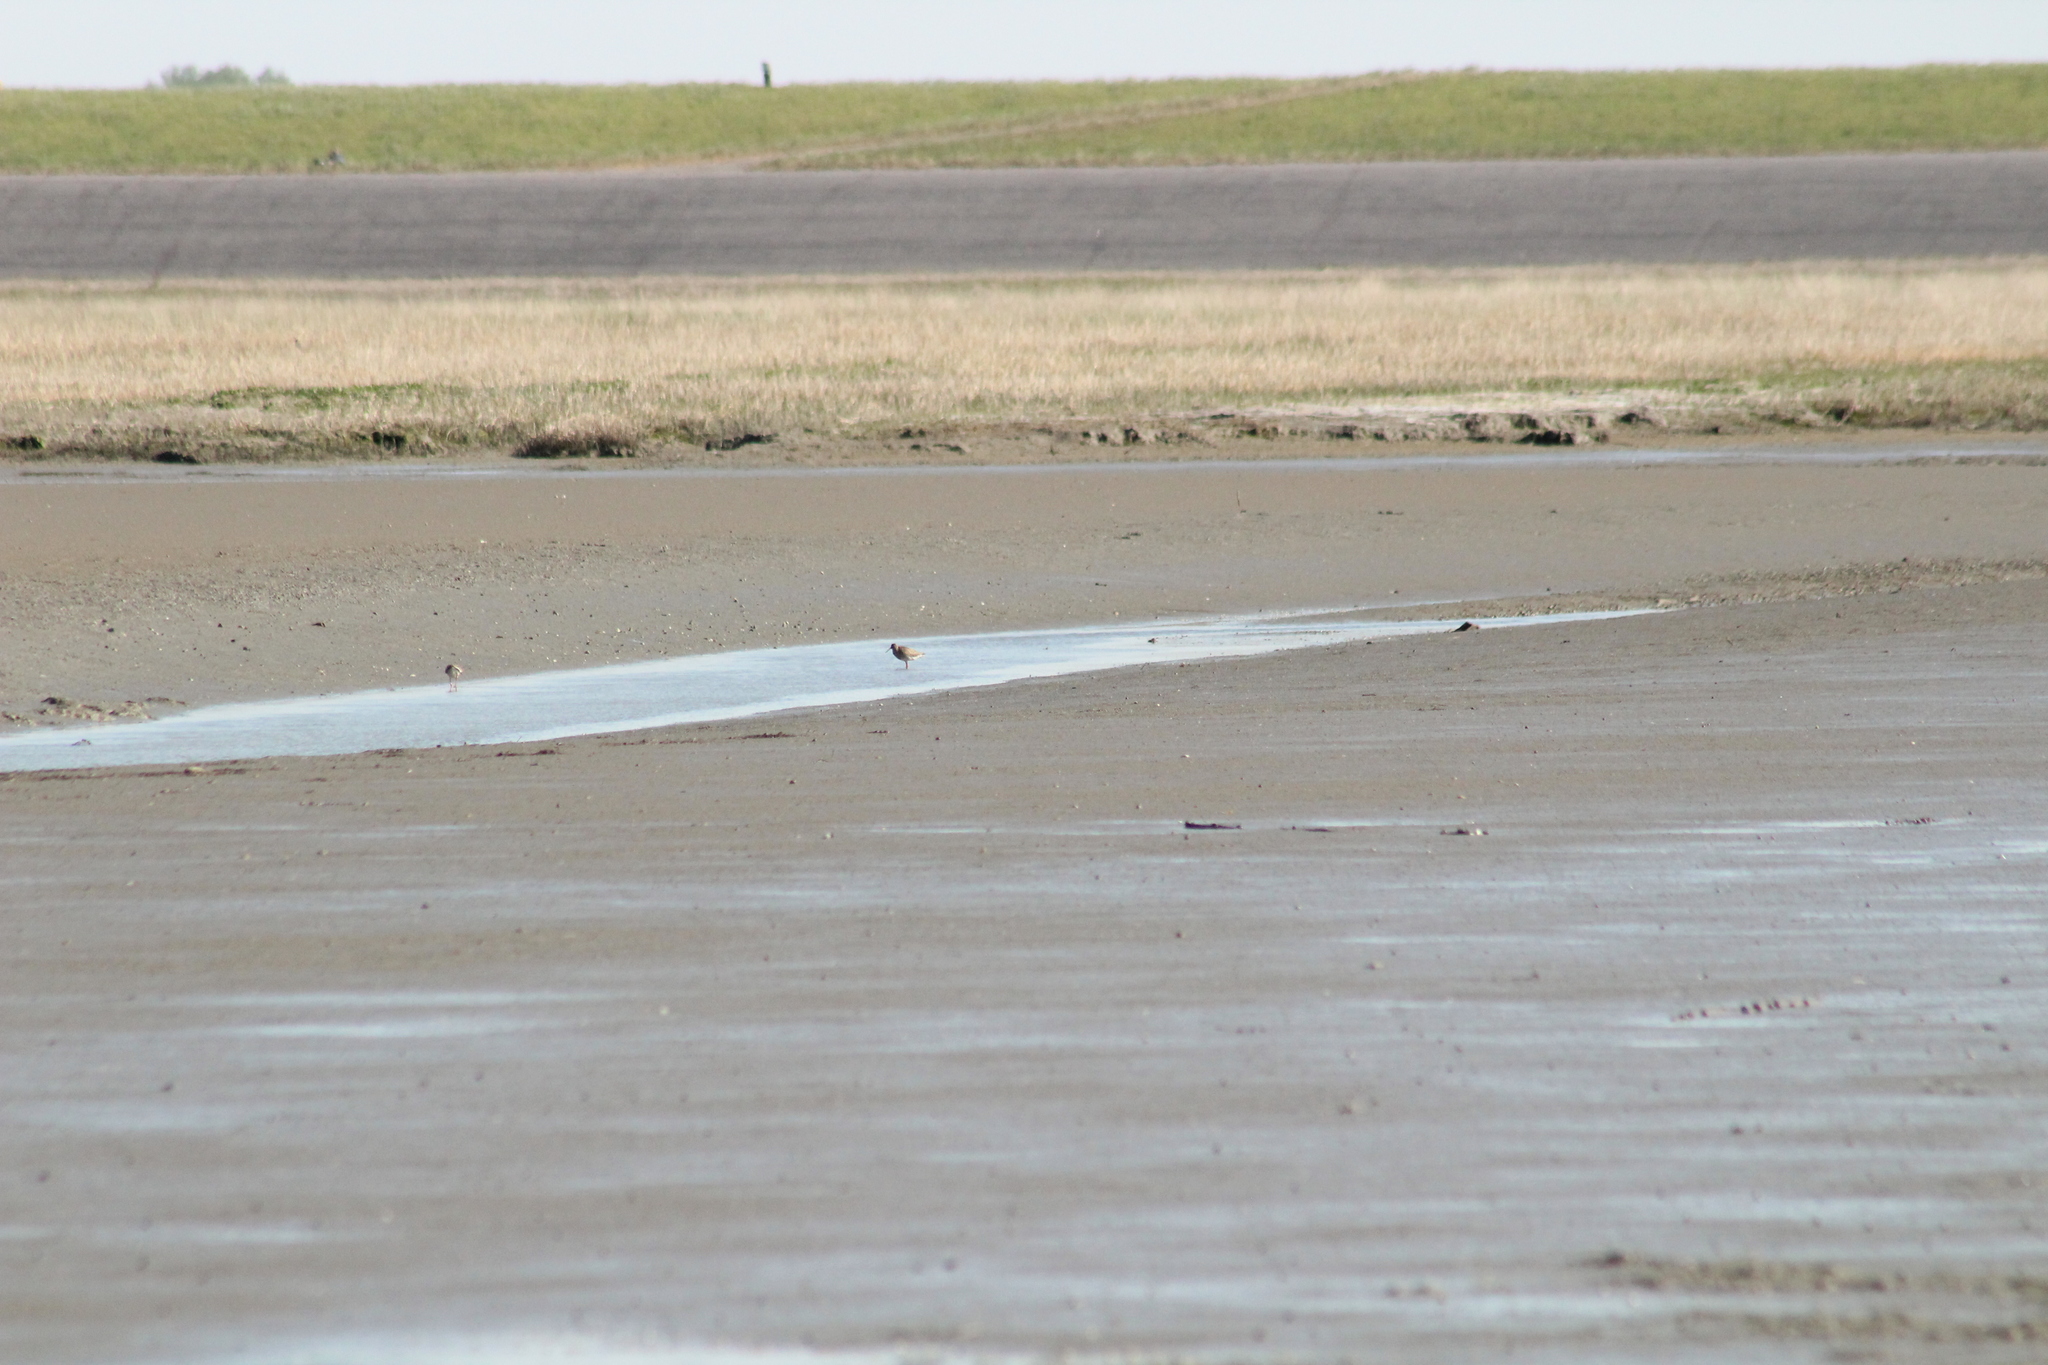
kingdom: Animalia
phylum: Chordata
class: Aves
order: Charadriiformes
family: Scolopacidae
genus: Tringa
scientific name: Tringa totanus
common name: Common redshank
